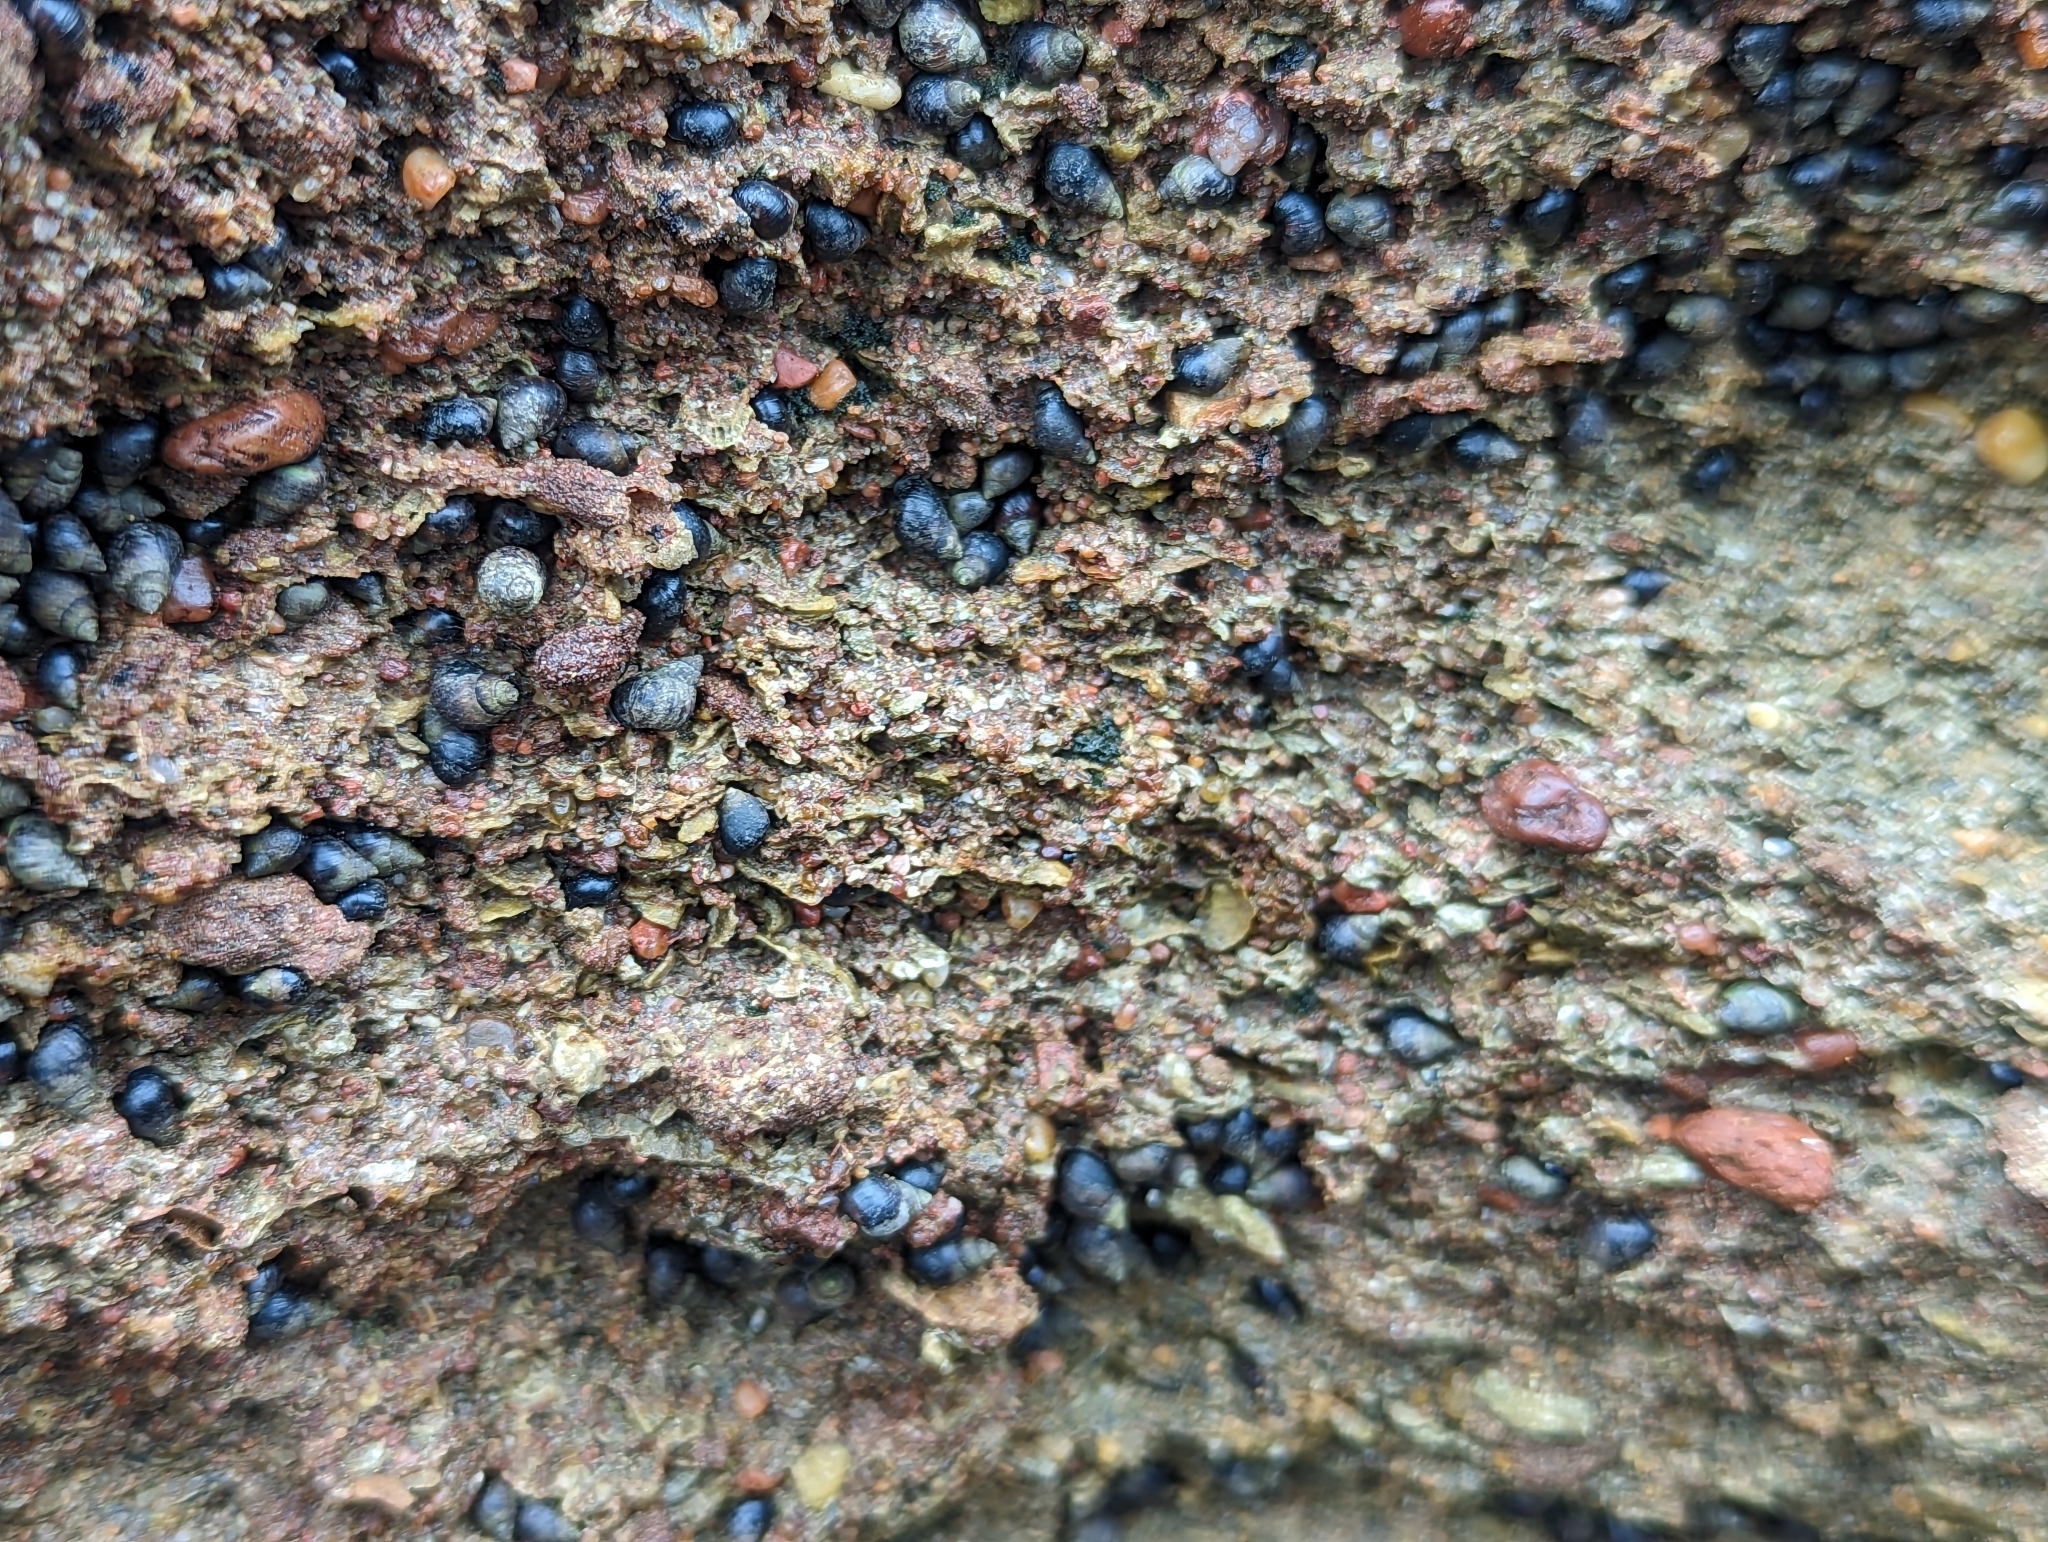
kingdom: Animalia
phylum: Mollusca
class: Gastropoda
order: Littorinimorpha
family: Littorinidae
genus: Echinolittorina
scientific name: Echinolittorina punctata
